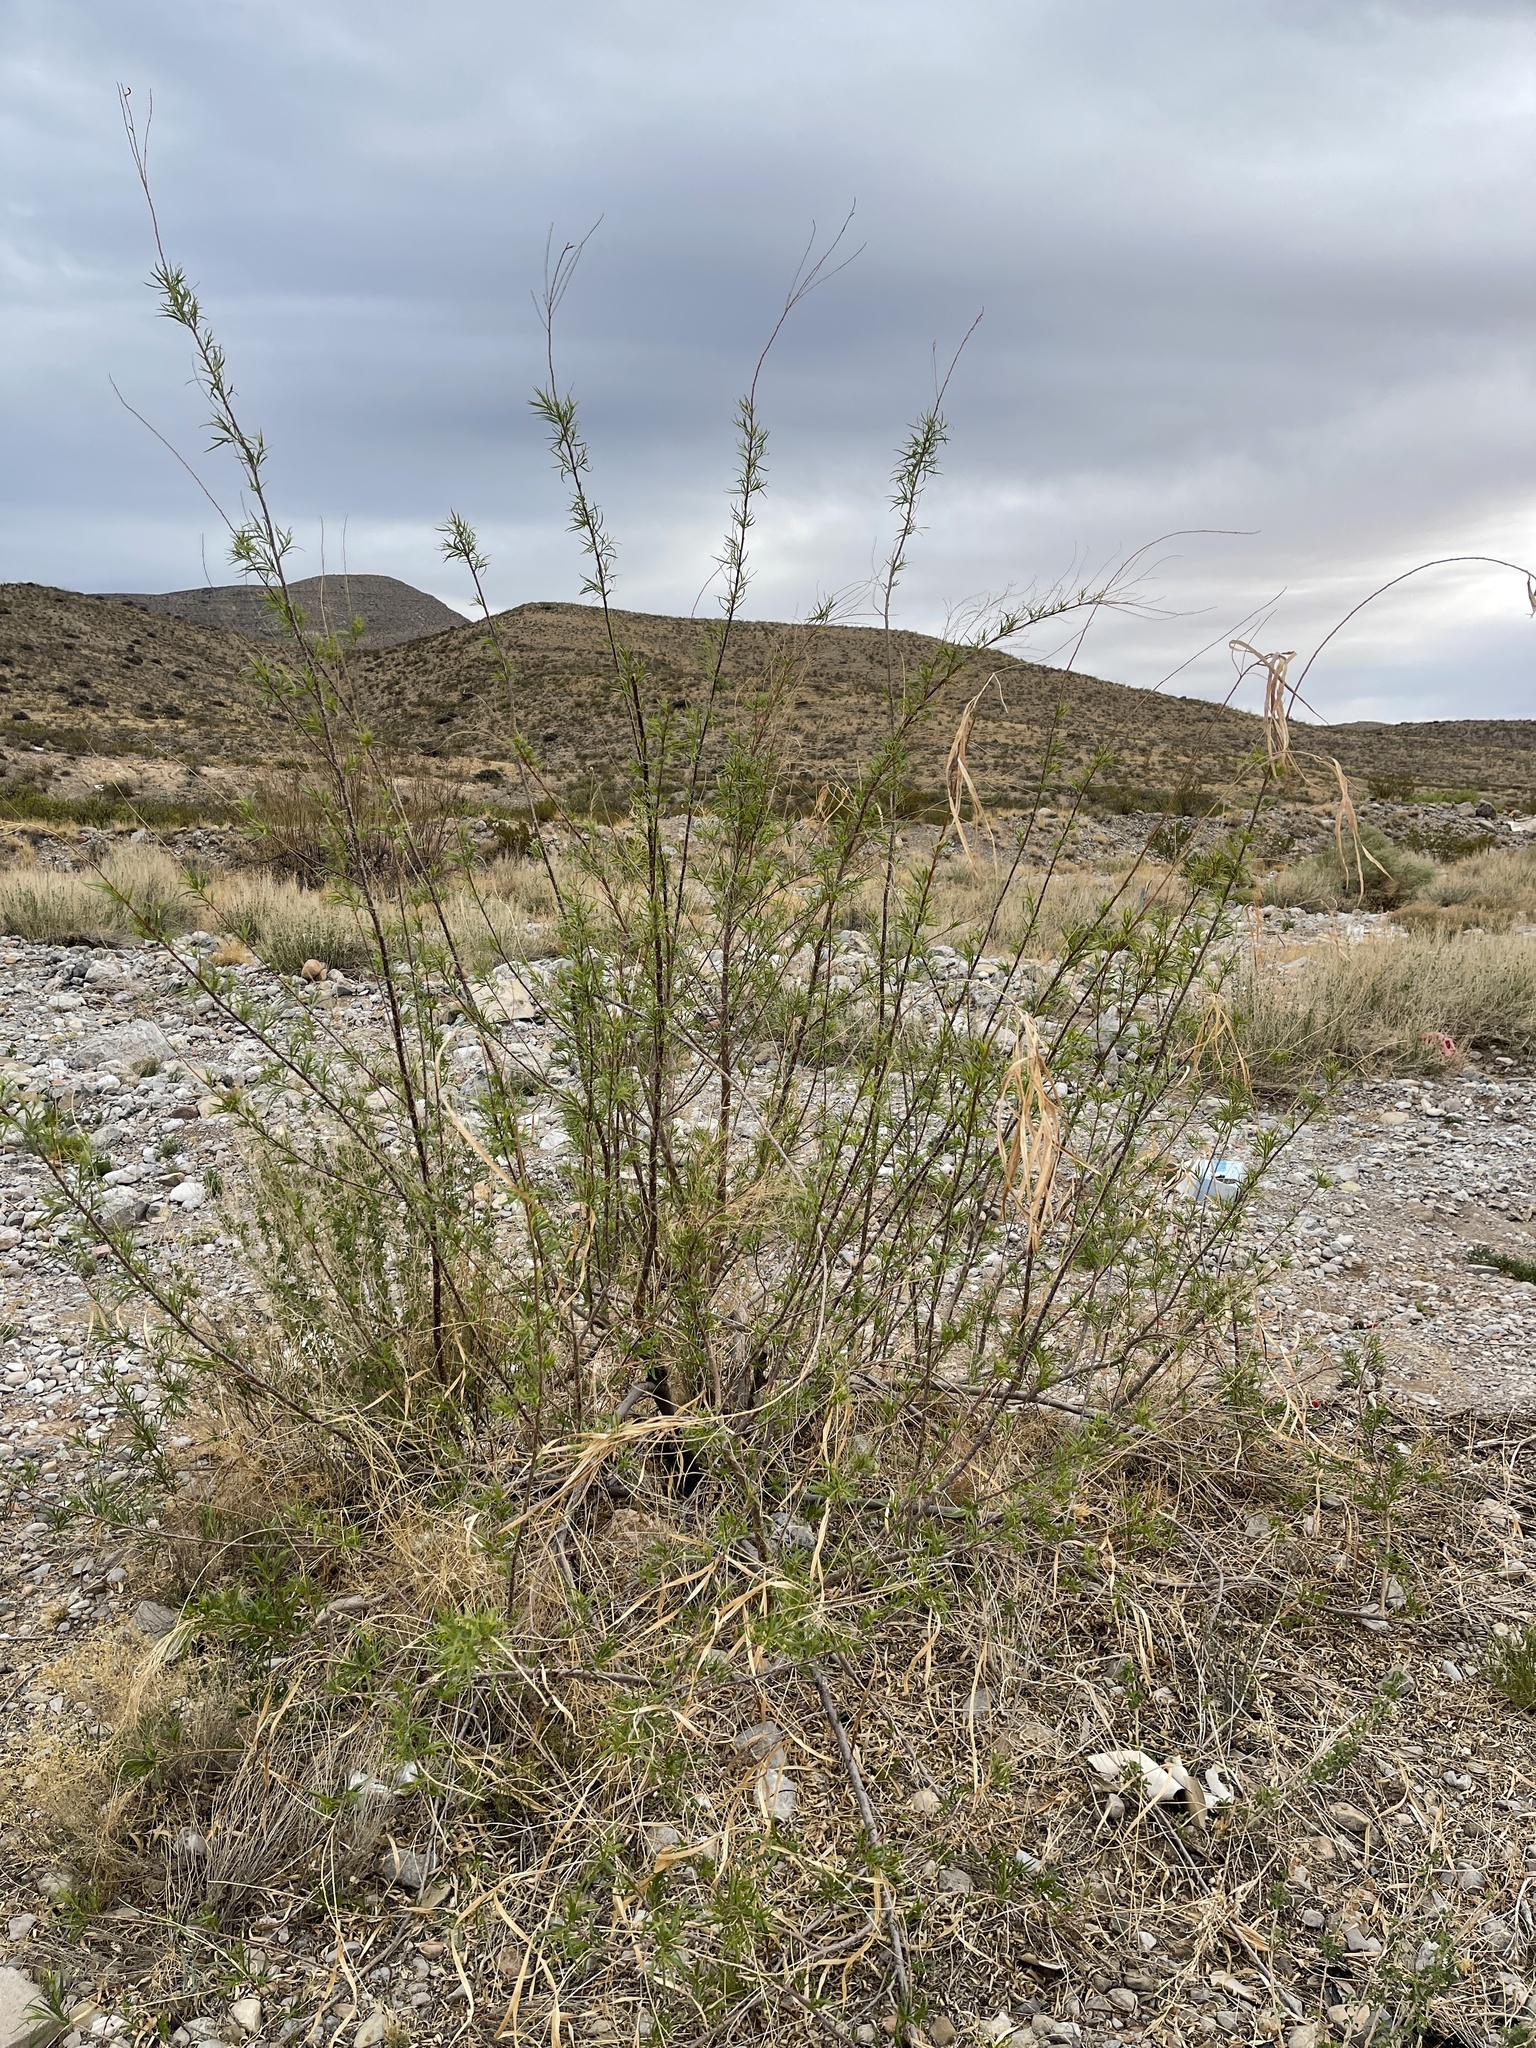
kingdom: Plantae
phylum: Tracheophyta
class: Magnoliopsida
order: Lamiales
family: Bignoniaceae
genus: Chilopsis
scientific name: Chilopsis linearis
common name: Desert-willow
